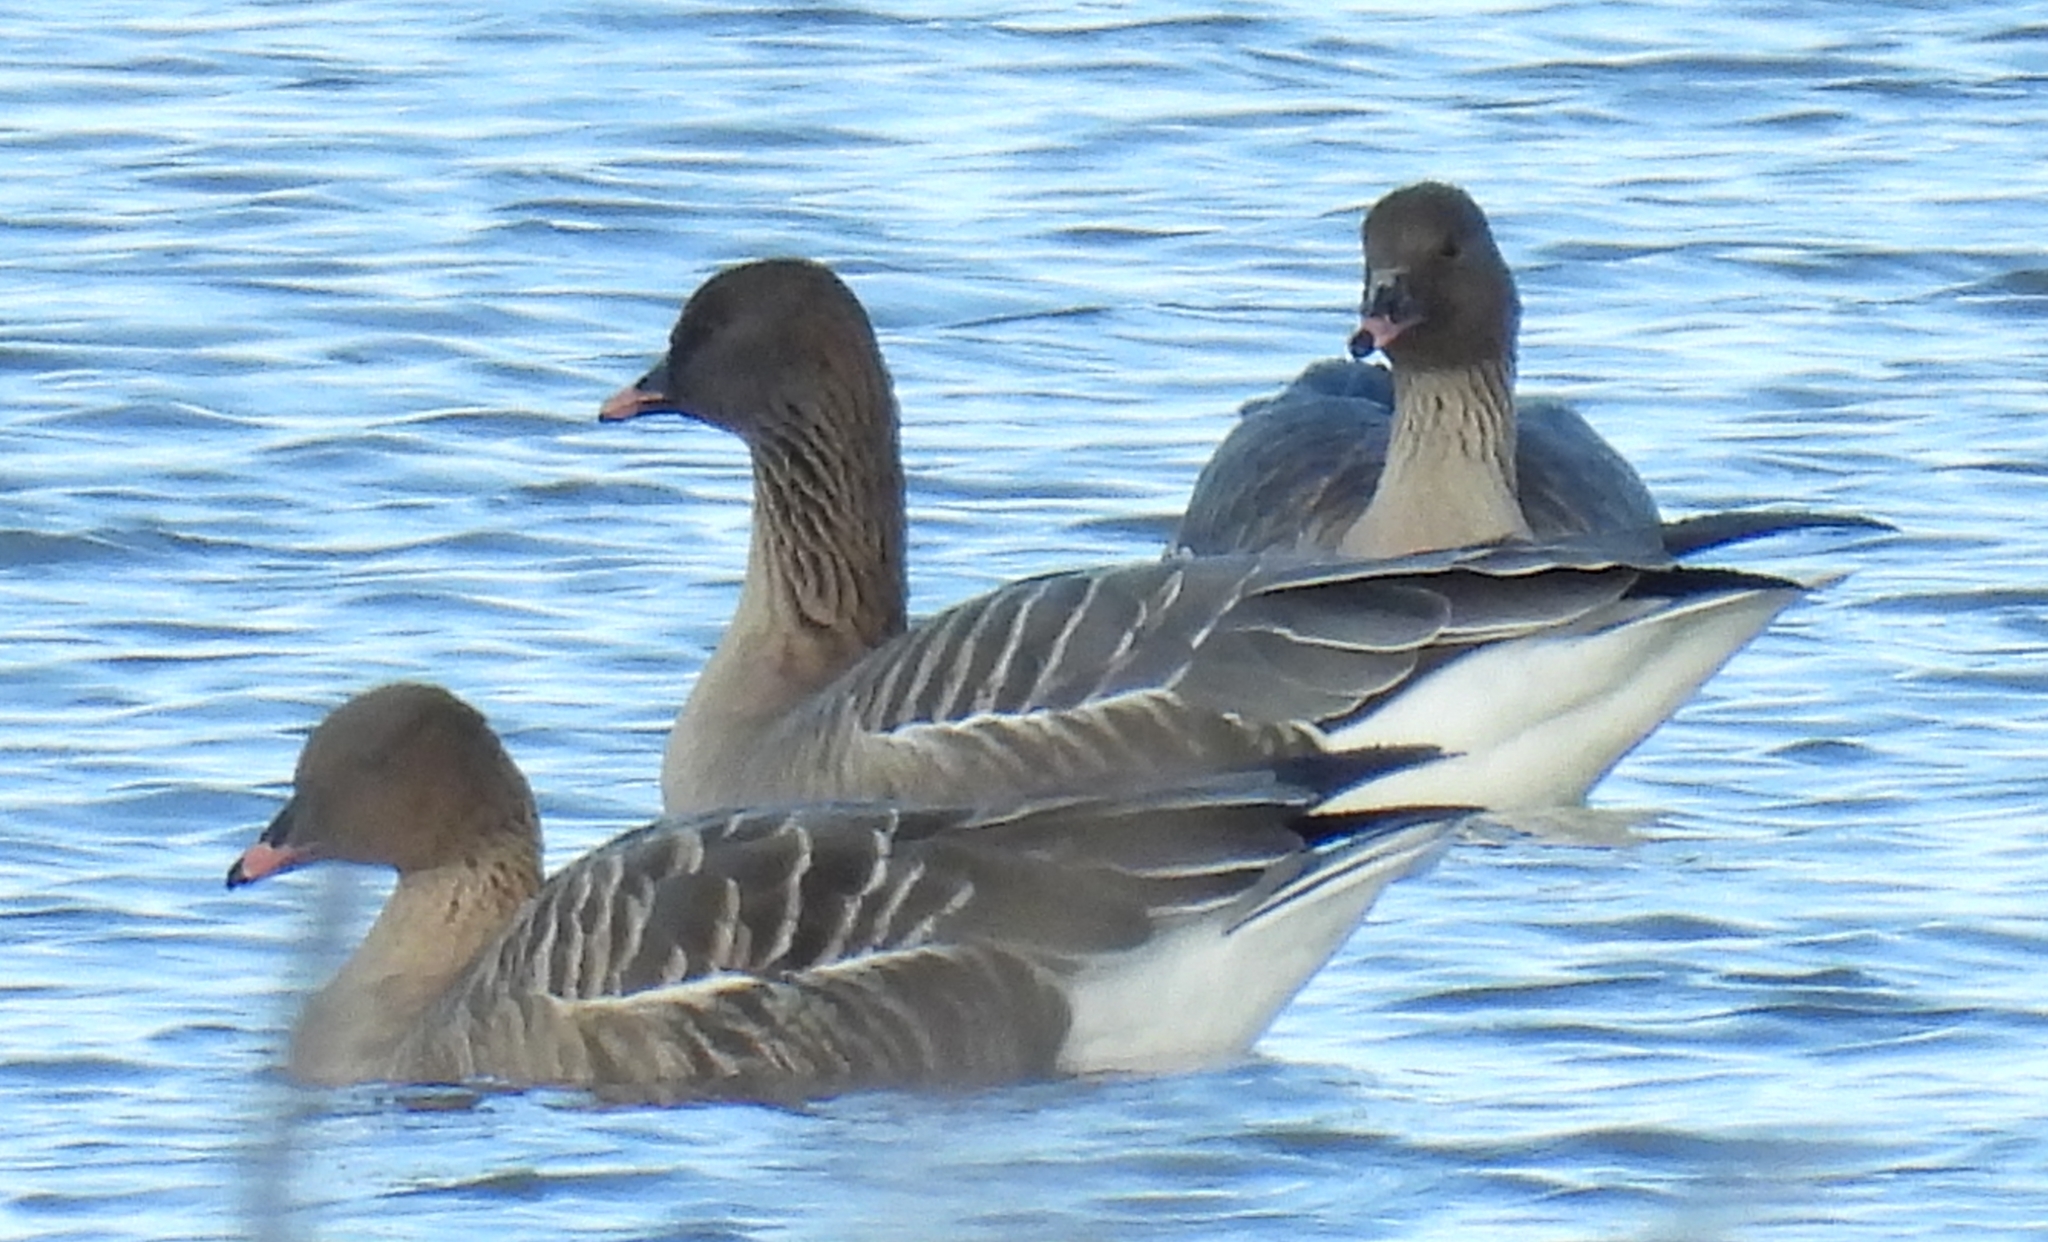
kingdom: Animalia
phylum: Chordata
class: Aves
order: Anseriformes
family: Anatidae
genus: Anser
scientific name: Anser brachyrhynchus
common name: Pink-footed goose
